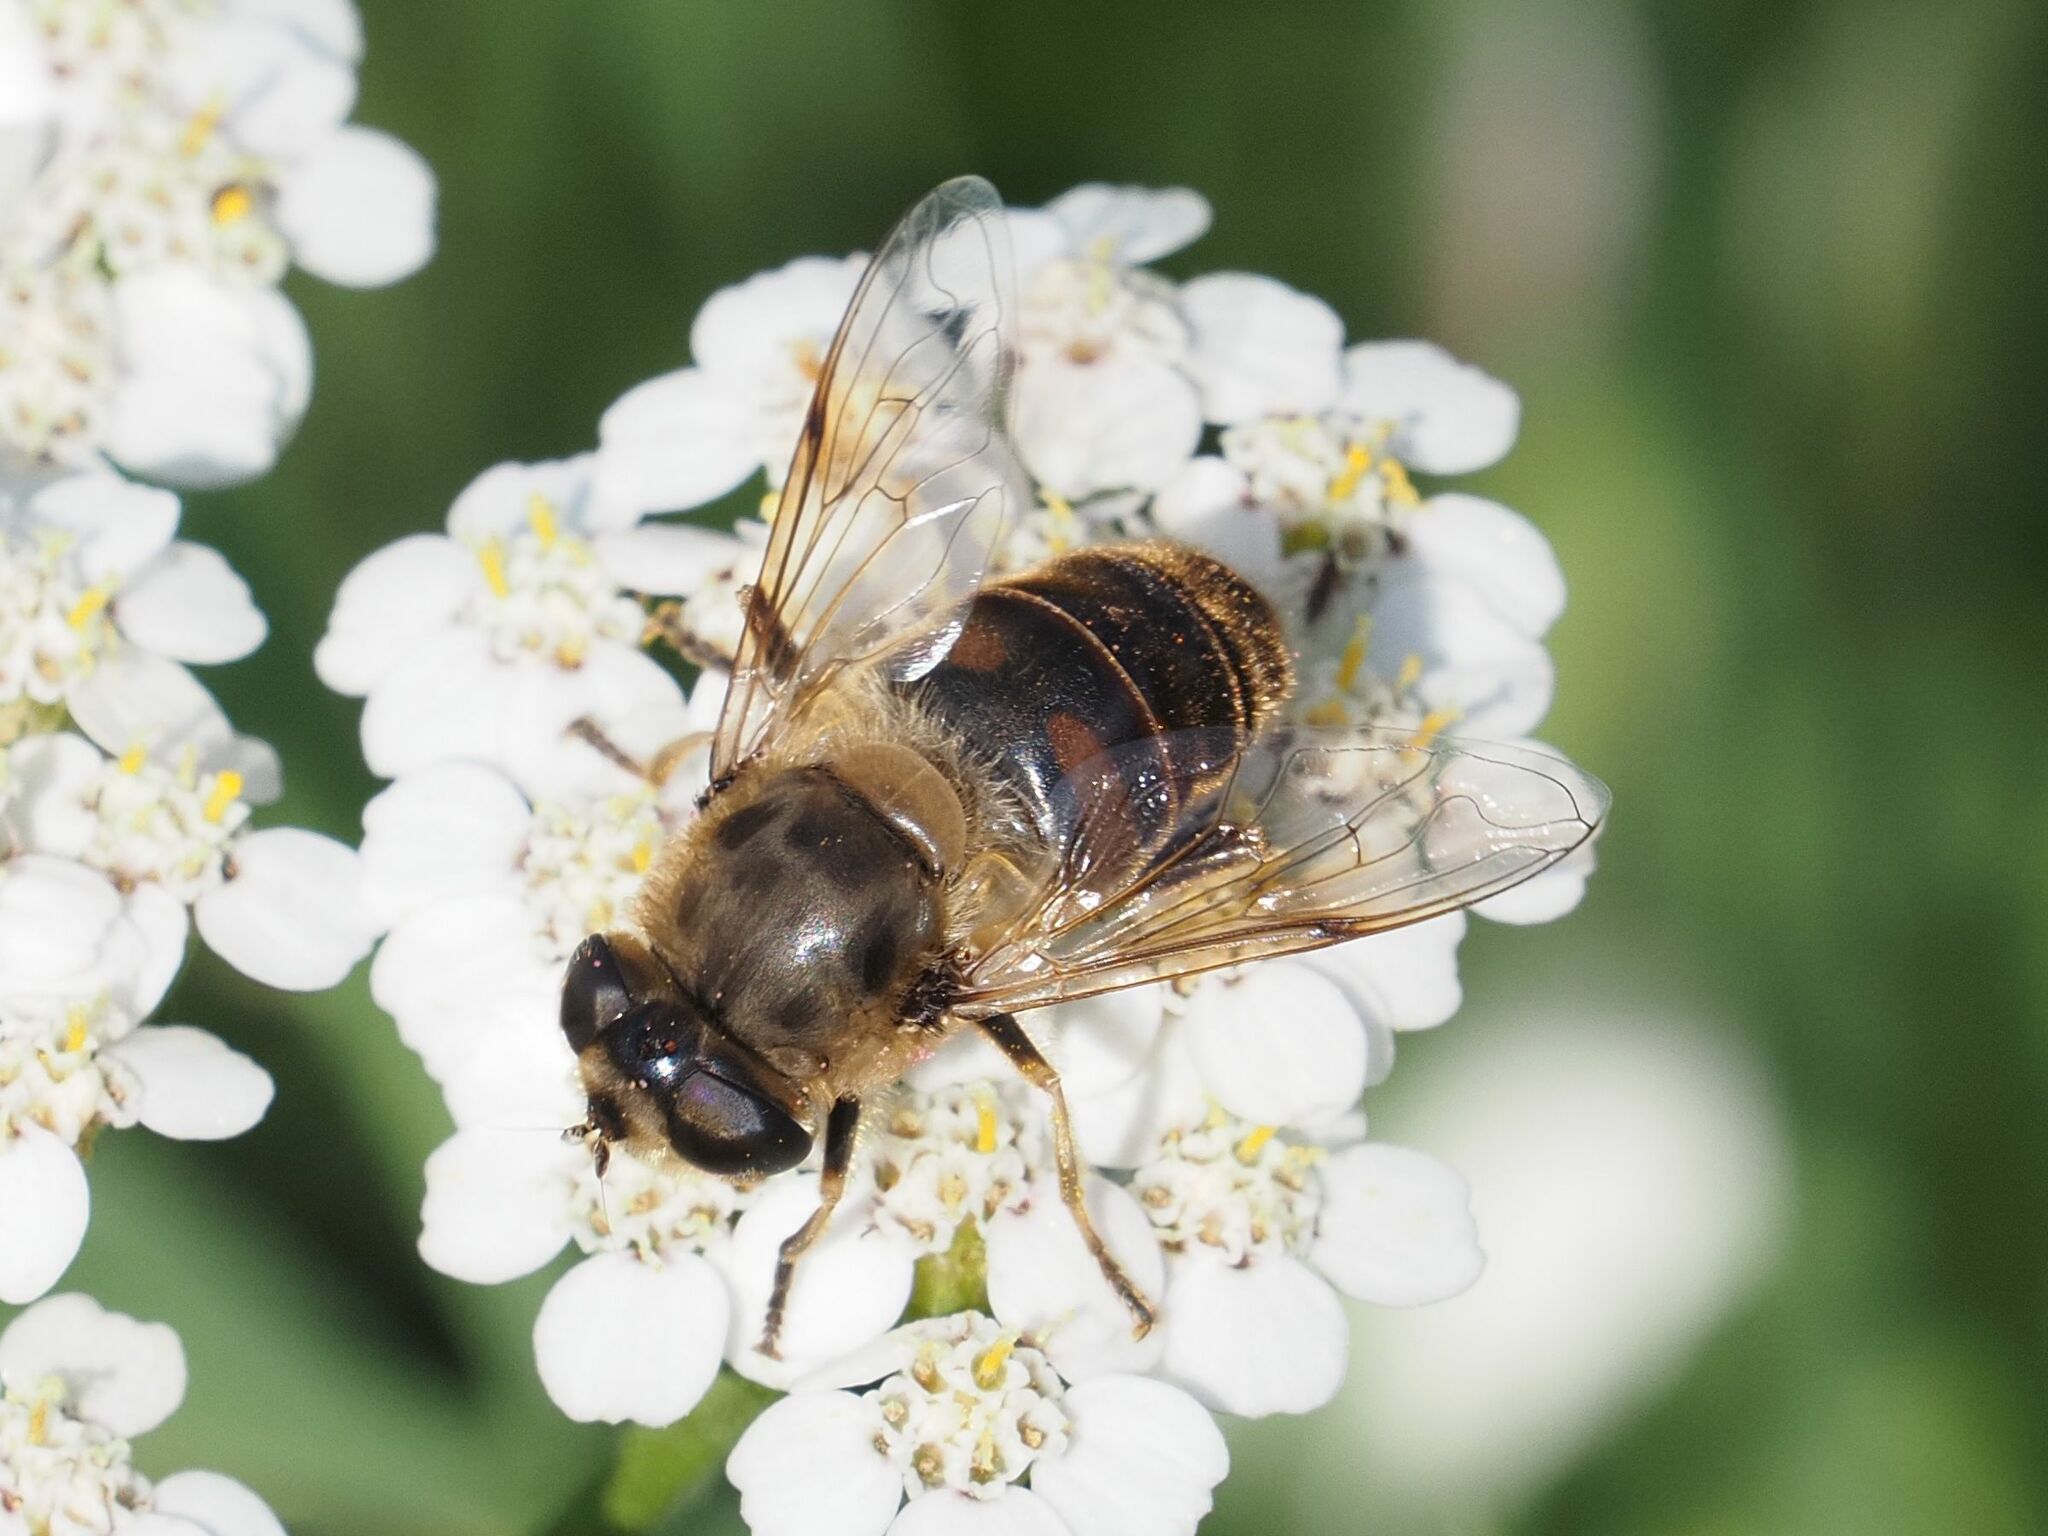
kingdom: Animalia
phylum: Arthropoda
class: Insecta
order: Diptera
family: Syrphidae
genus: Eristalis
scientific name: Eristalis tenax
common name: Drone fly
